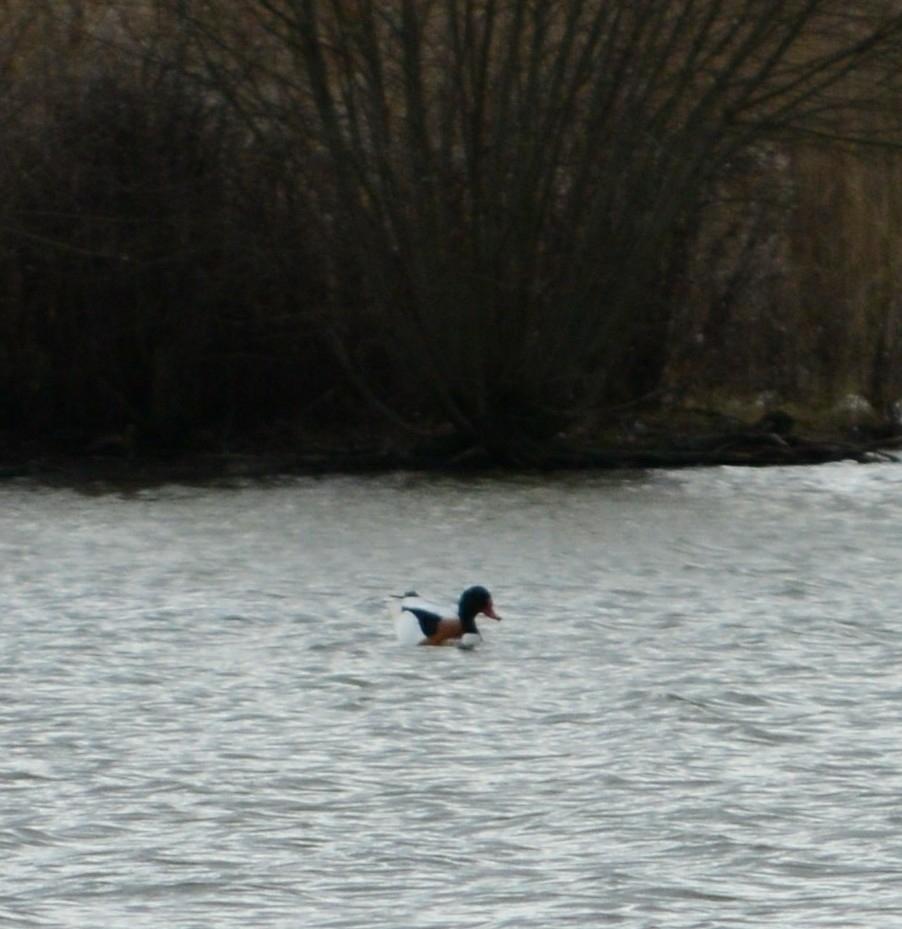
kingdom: Animalia
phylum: Chordata
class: Aves
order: Anseriformes
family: Anatidae
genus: Tadorna
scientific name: Tadorna tadorna
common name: Common shelduck
